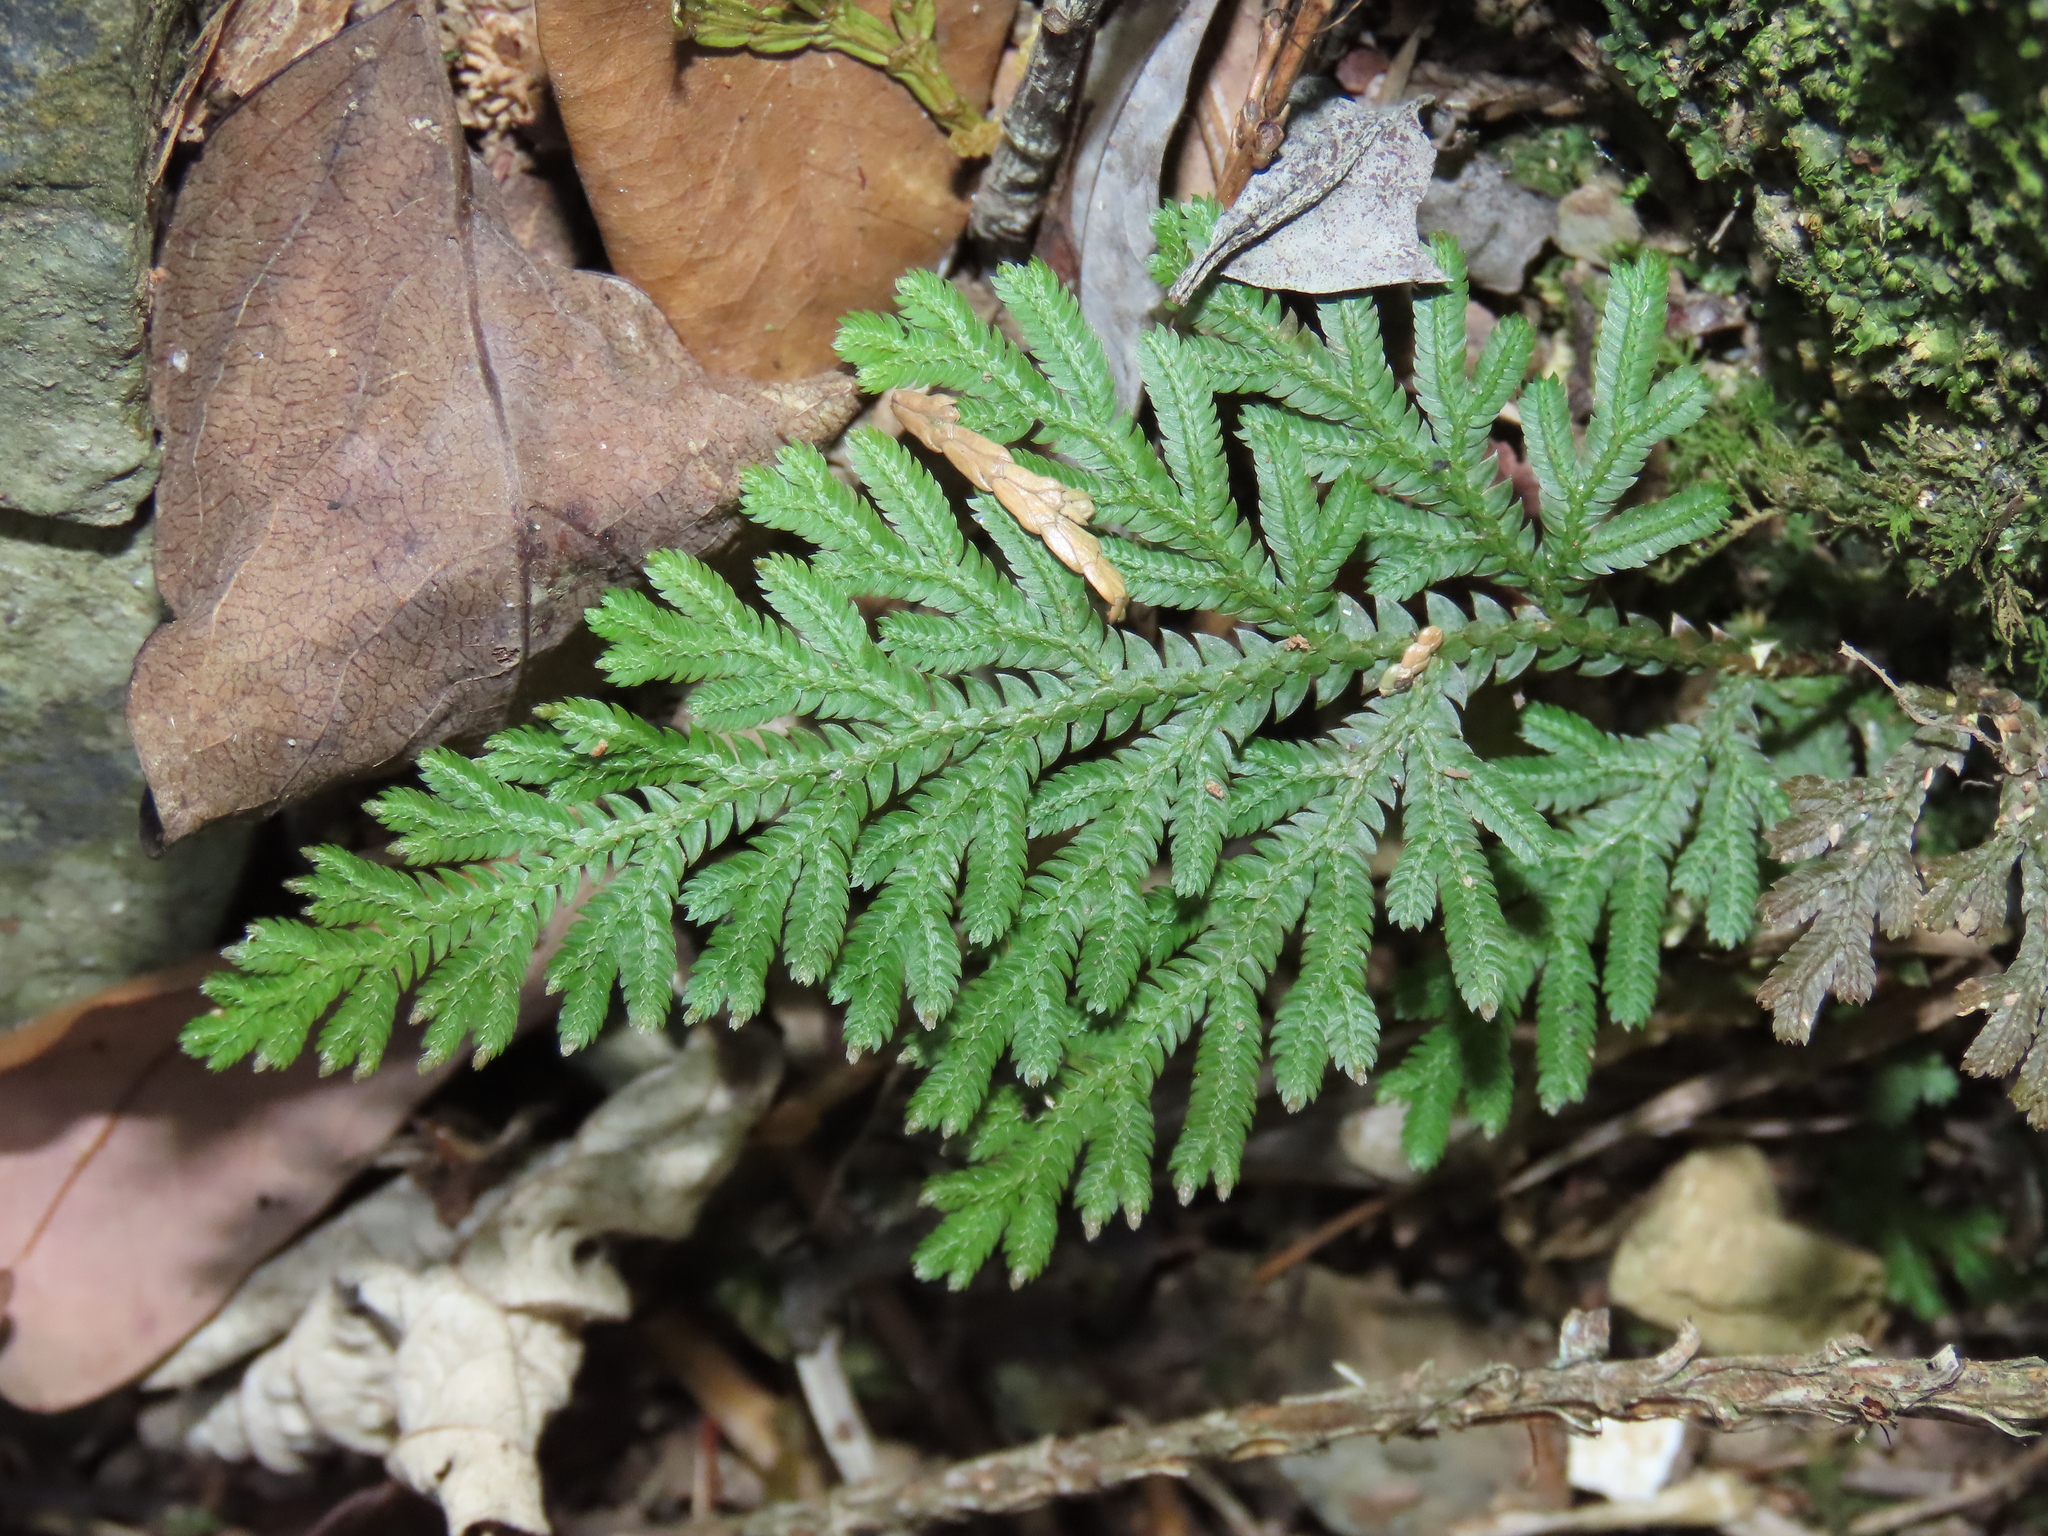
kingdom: Plantae
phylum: Tracheophyta
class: Lycopodiopsida
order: Selaginellales
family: Selaginellaceae
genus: Selaginella
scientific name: Selaginella moellendorffii
